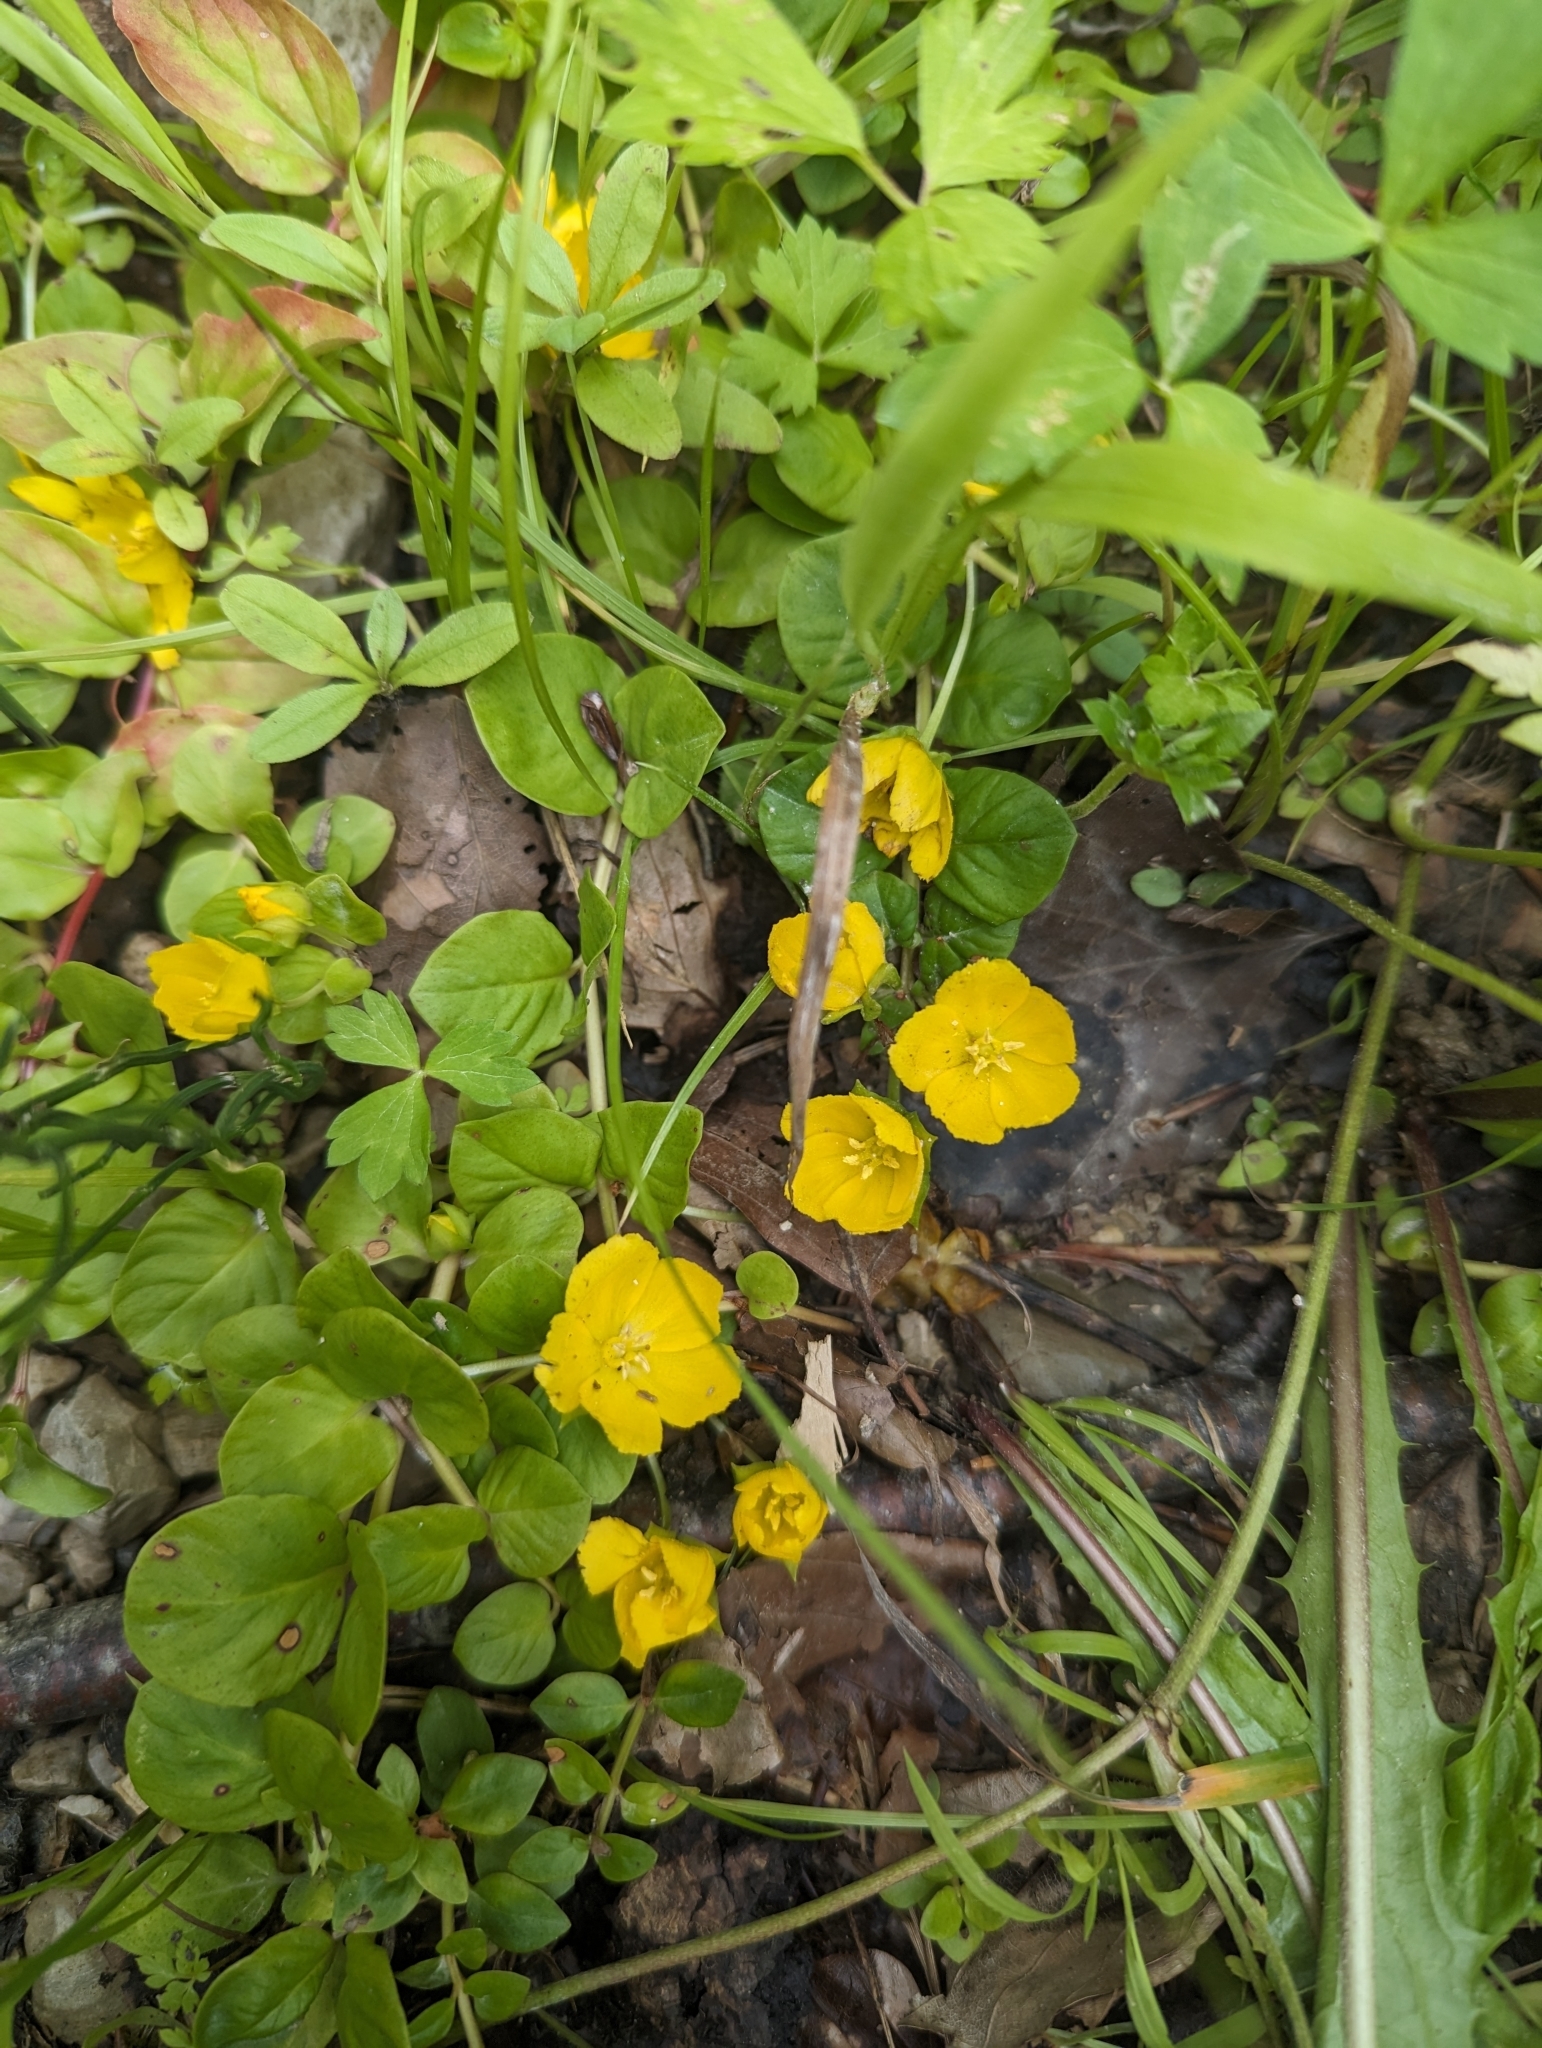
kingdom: Plantae
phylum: Tracheophyta
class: Magnoliopsida
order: Ericales
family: Primulaceae
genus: Lysimachia
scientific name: Lysimachia nummularia
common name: Moneywort
